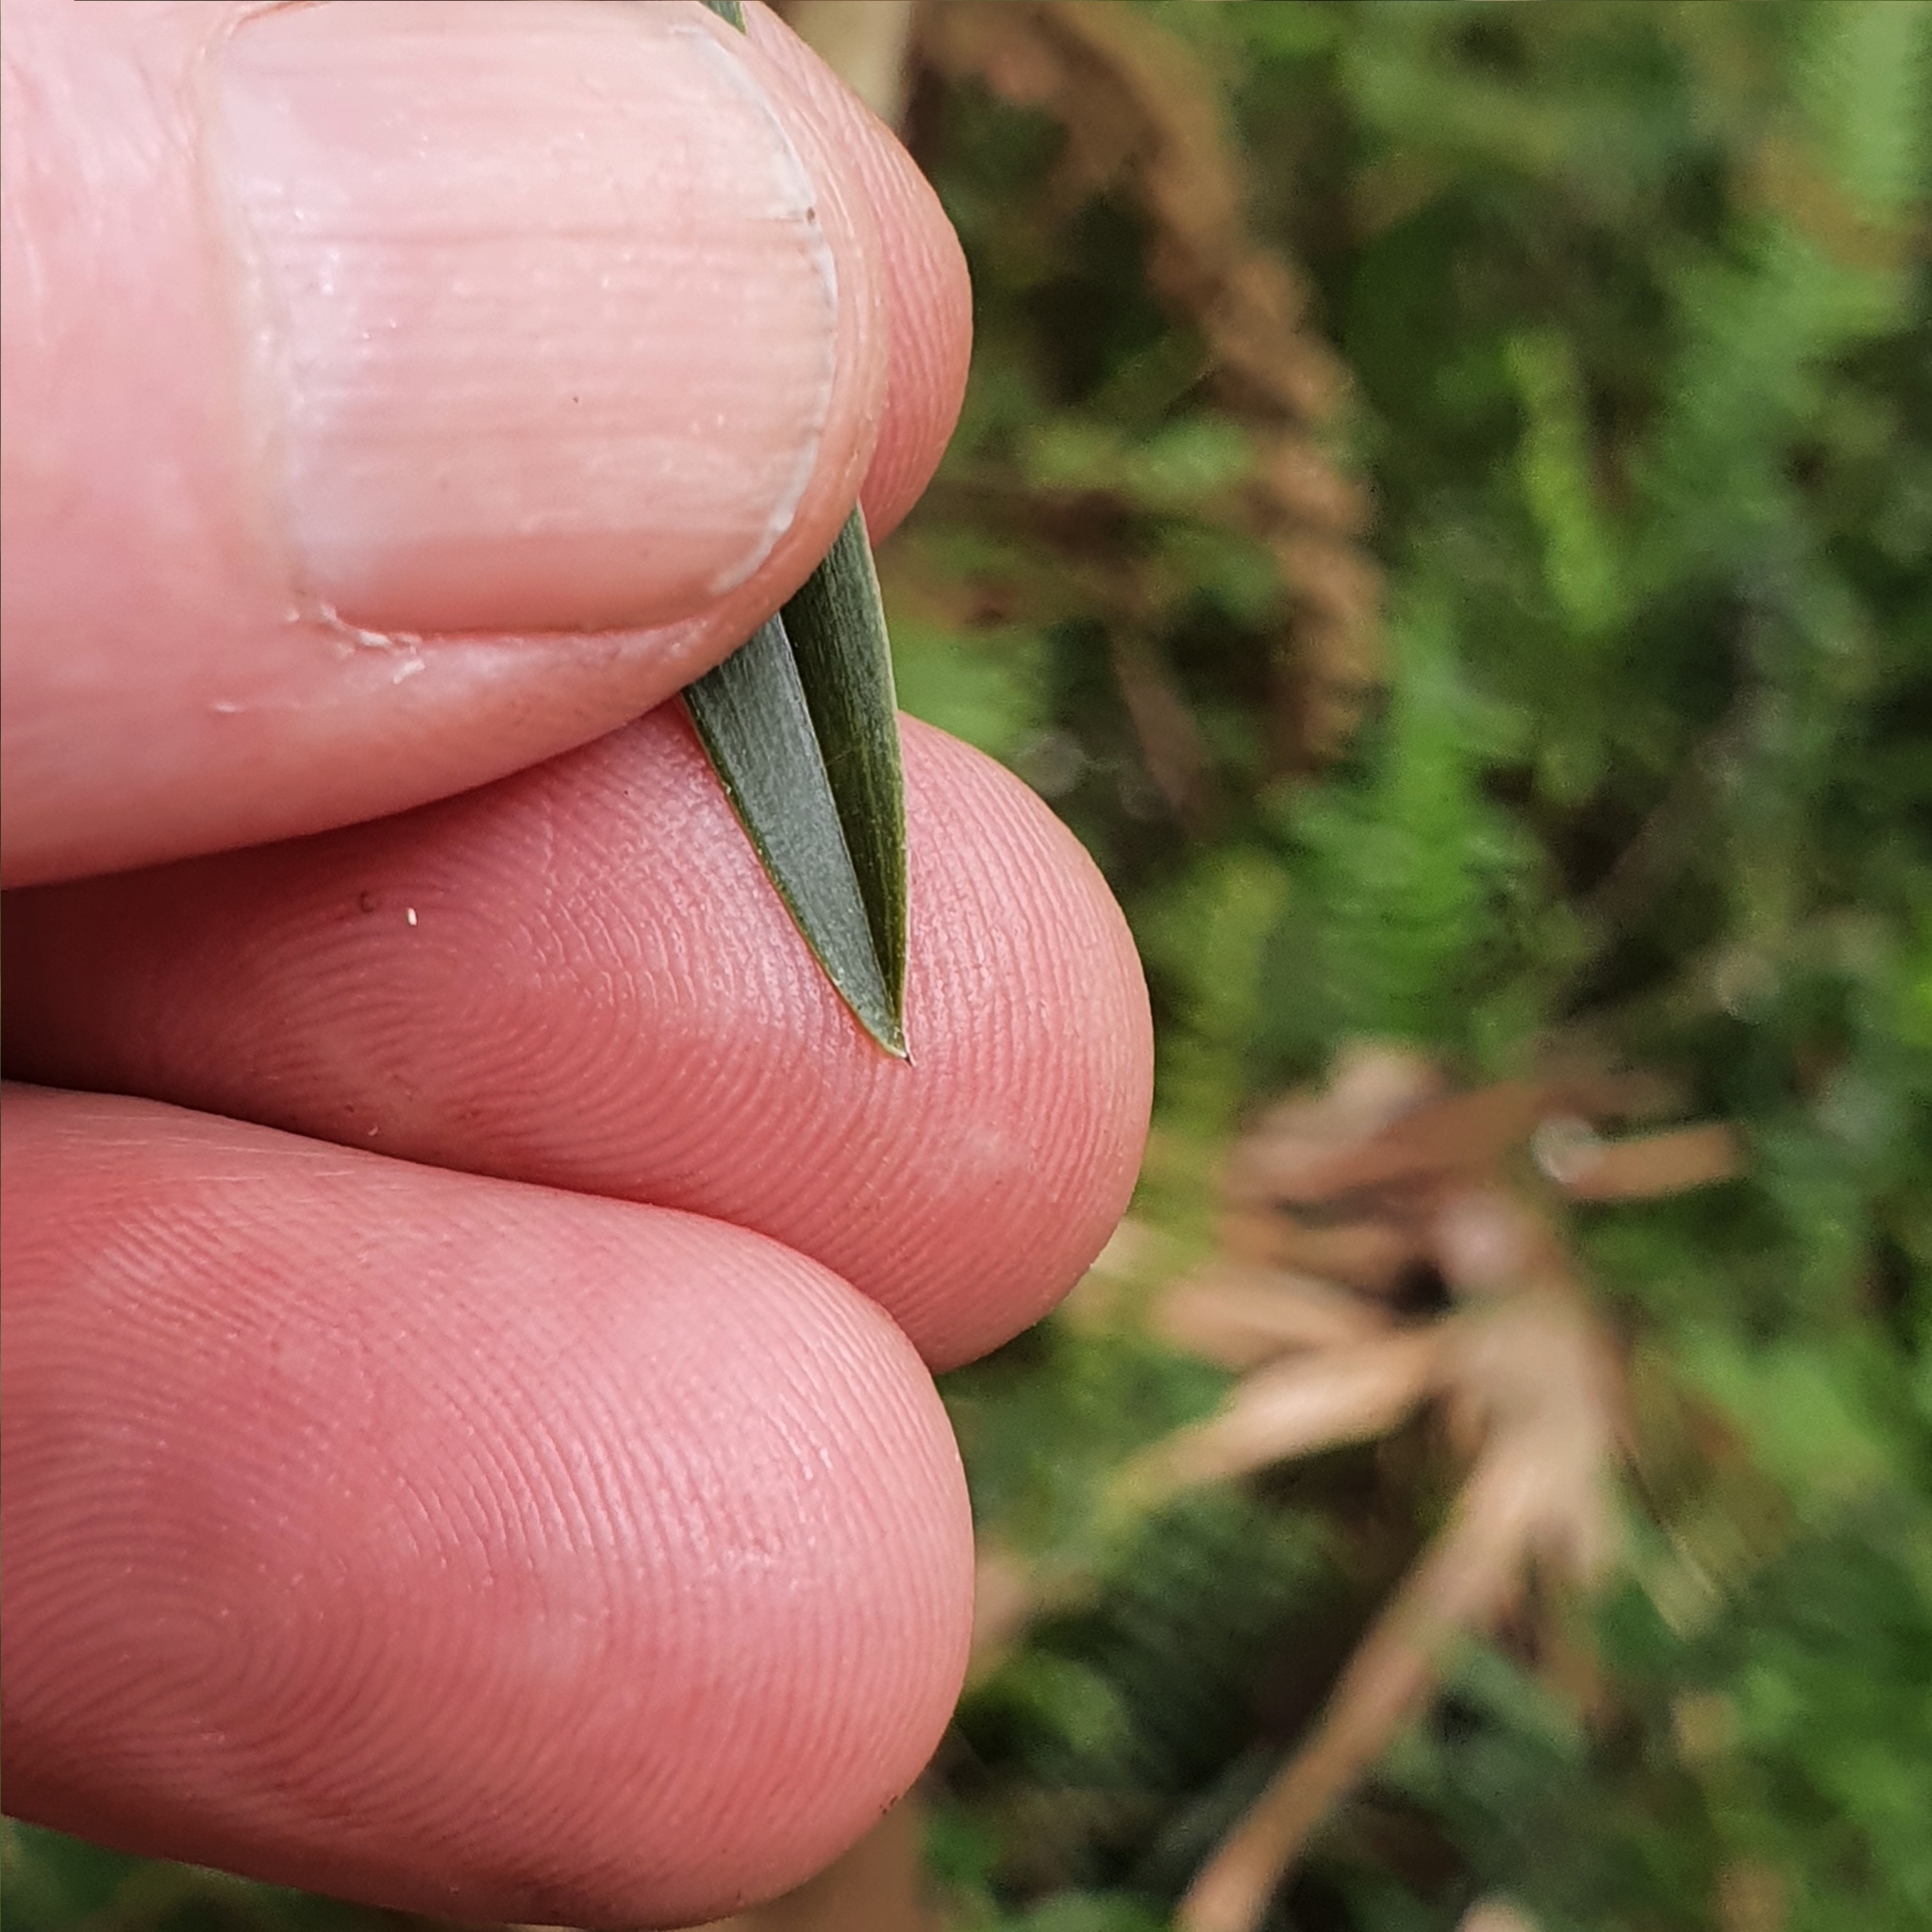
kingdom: Plantae
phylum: Tracheophyta
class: Liliopsida
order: Asparagales
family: Orchidaceae
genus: Cymbidium
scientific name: Cymbidium suave
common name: Snake orchid
